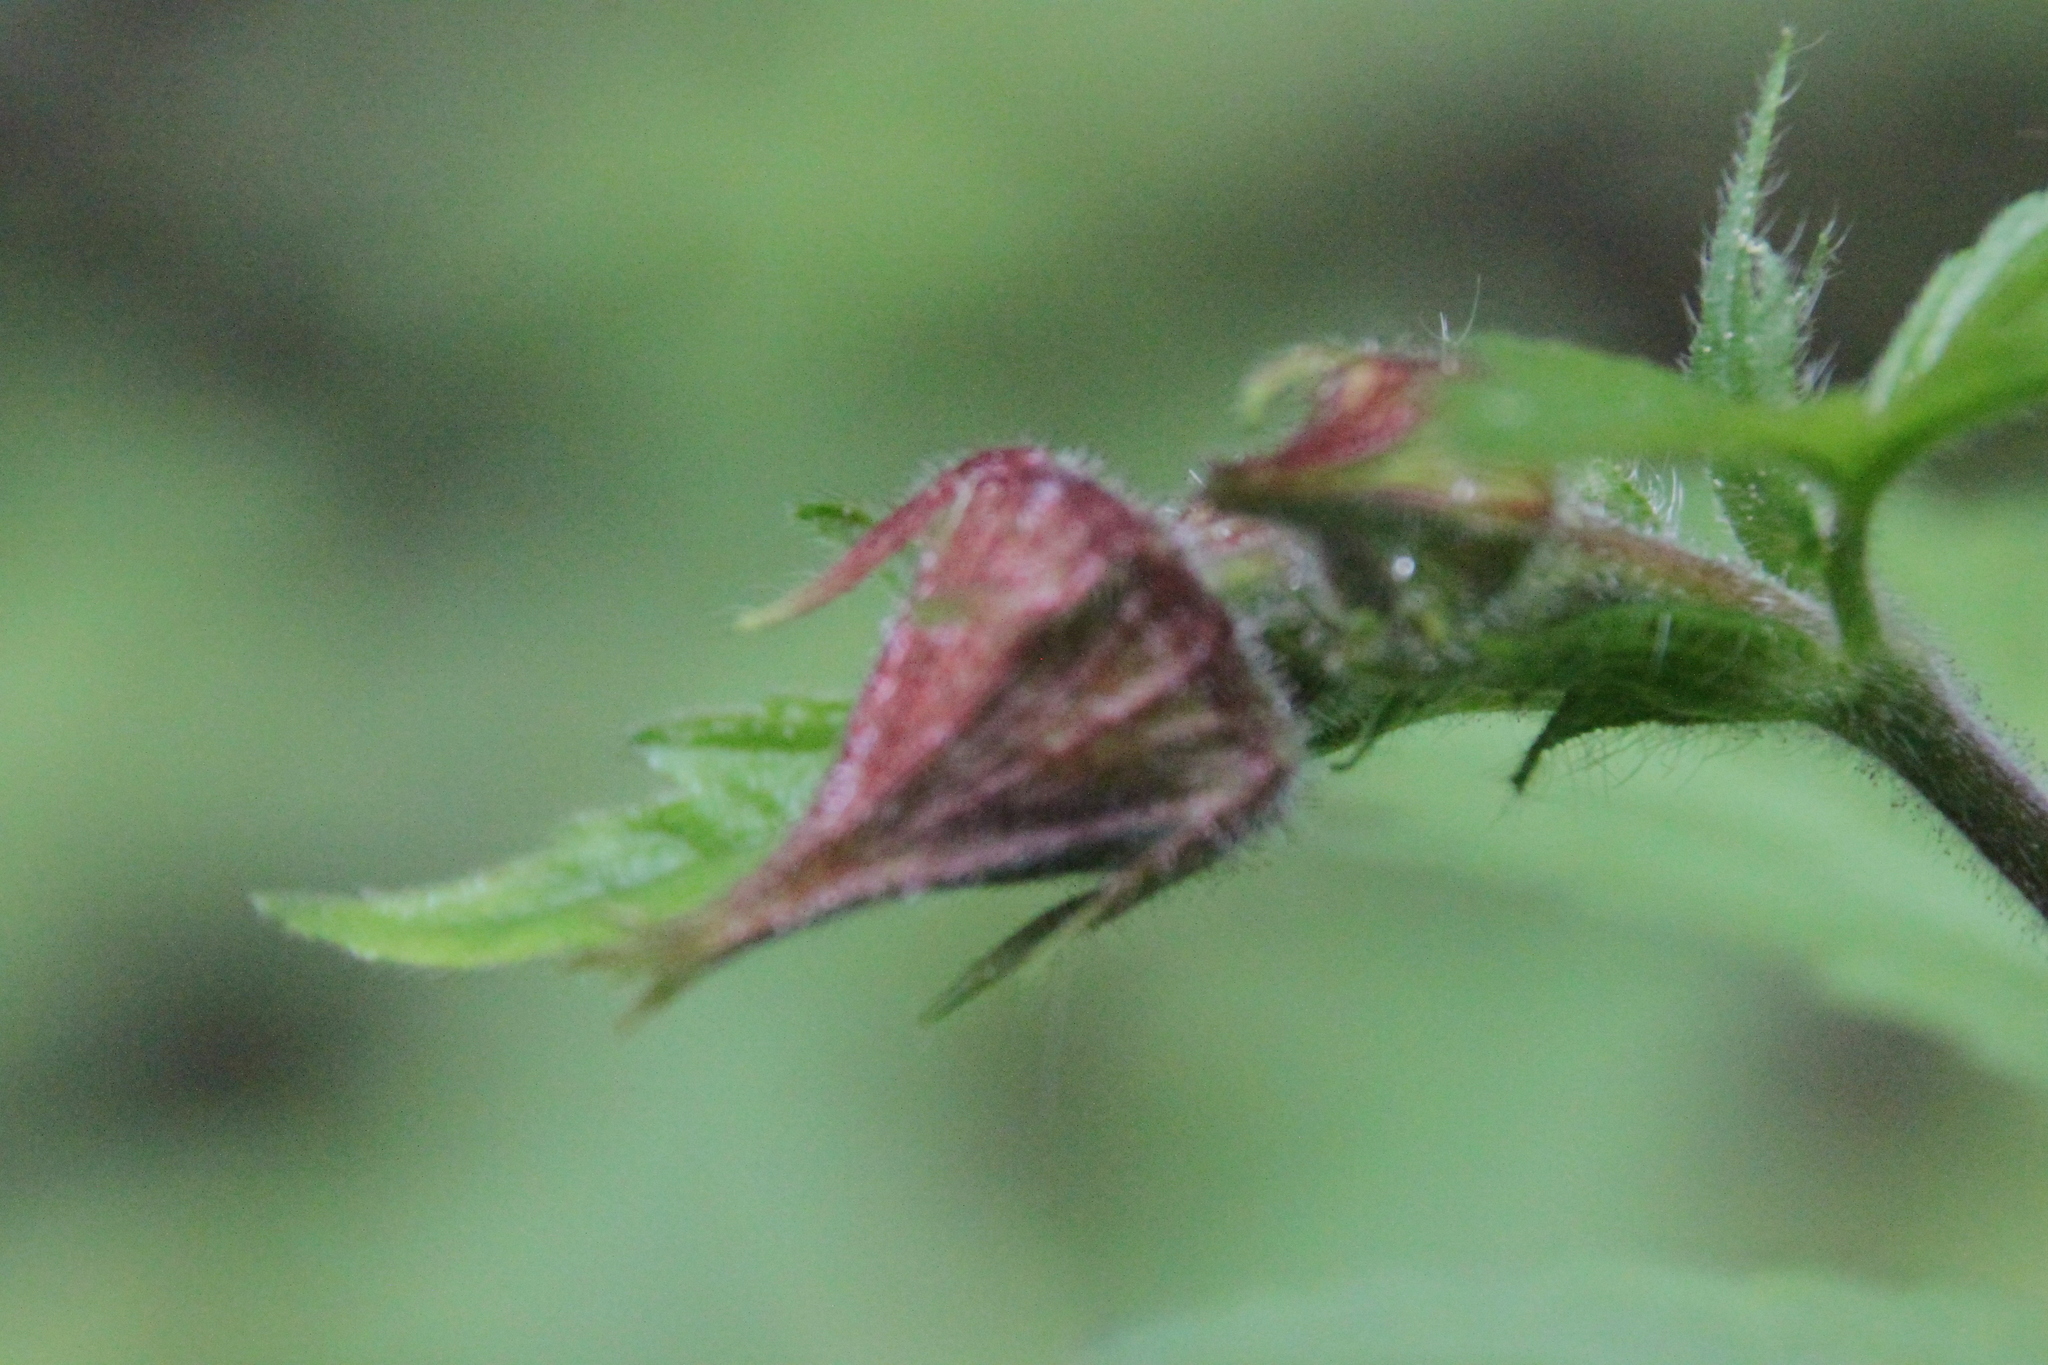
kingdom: Plantae
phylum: Tracheophyta
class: Magnoliopsida
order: Rosales
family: Rosaceae
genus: Geum
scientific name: Geum rivale
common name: Water avens
